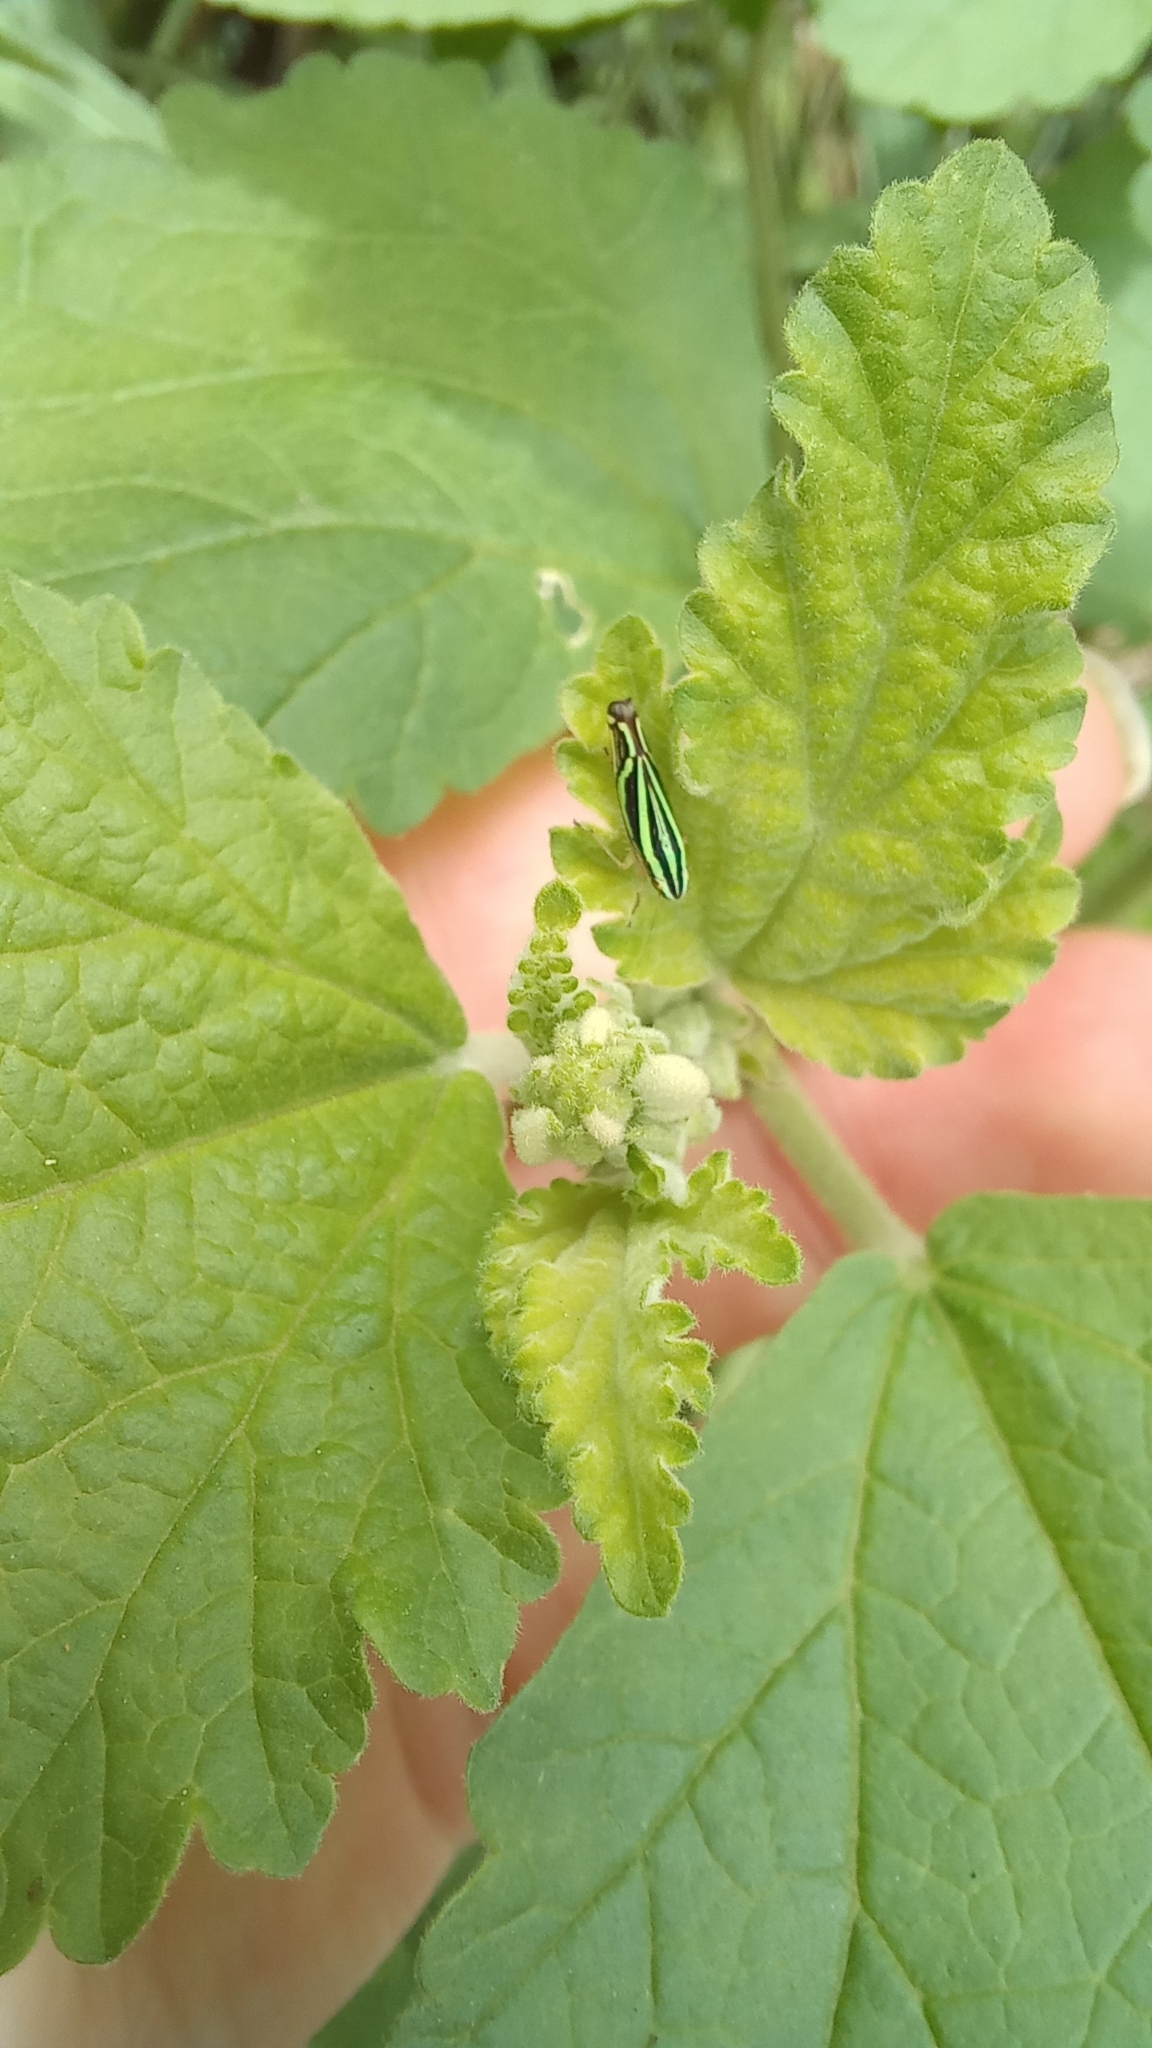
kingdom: Animalia
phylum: Arthropoda
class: Insecta
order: Hemiptera
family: Cicadellidae
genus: Sibovia
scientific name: Sibovia sagata
